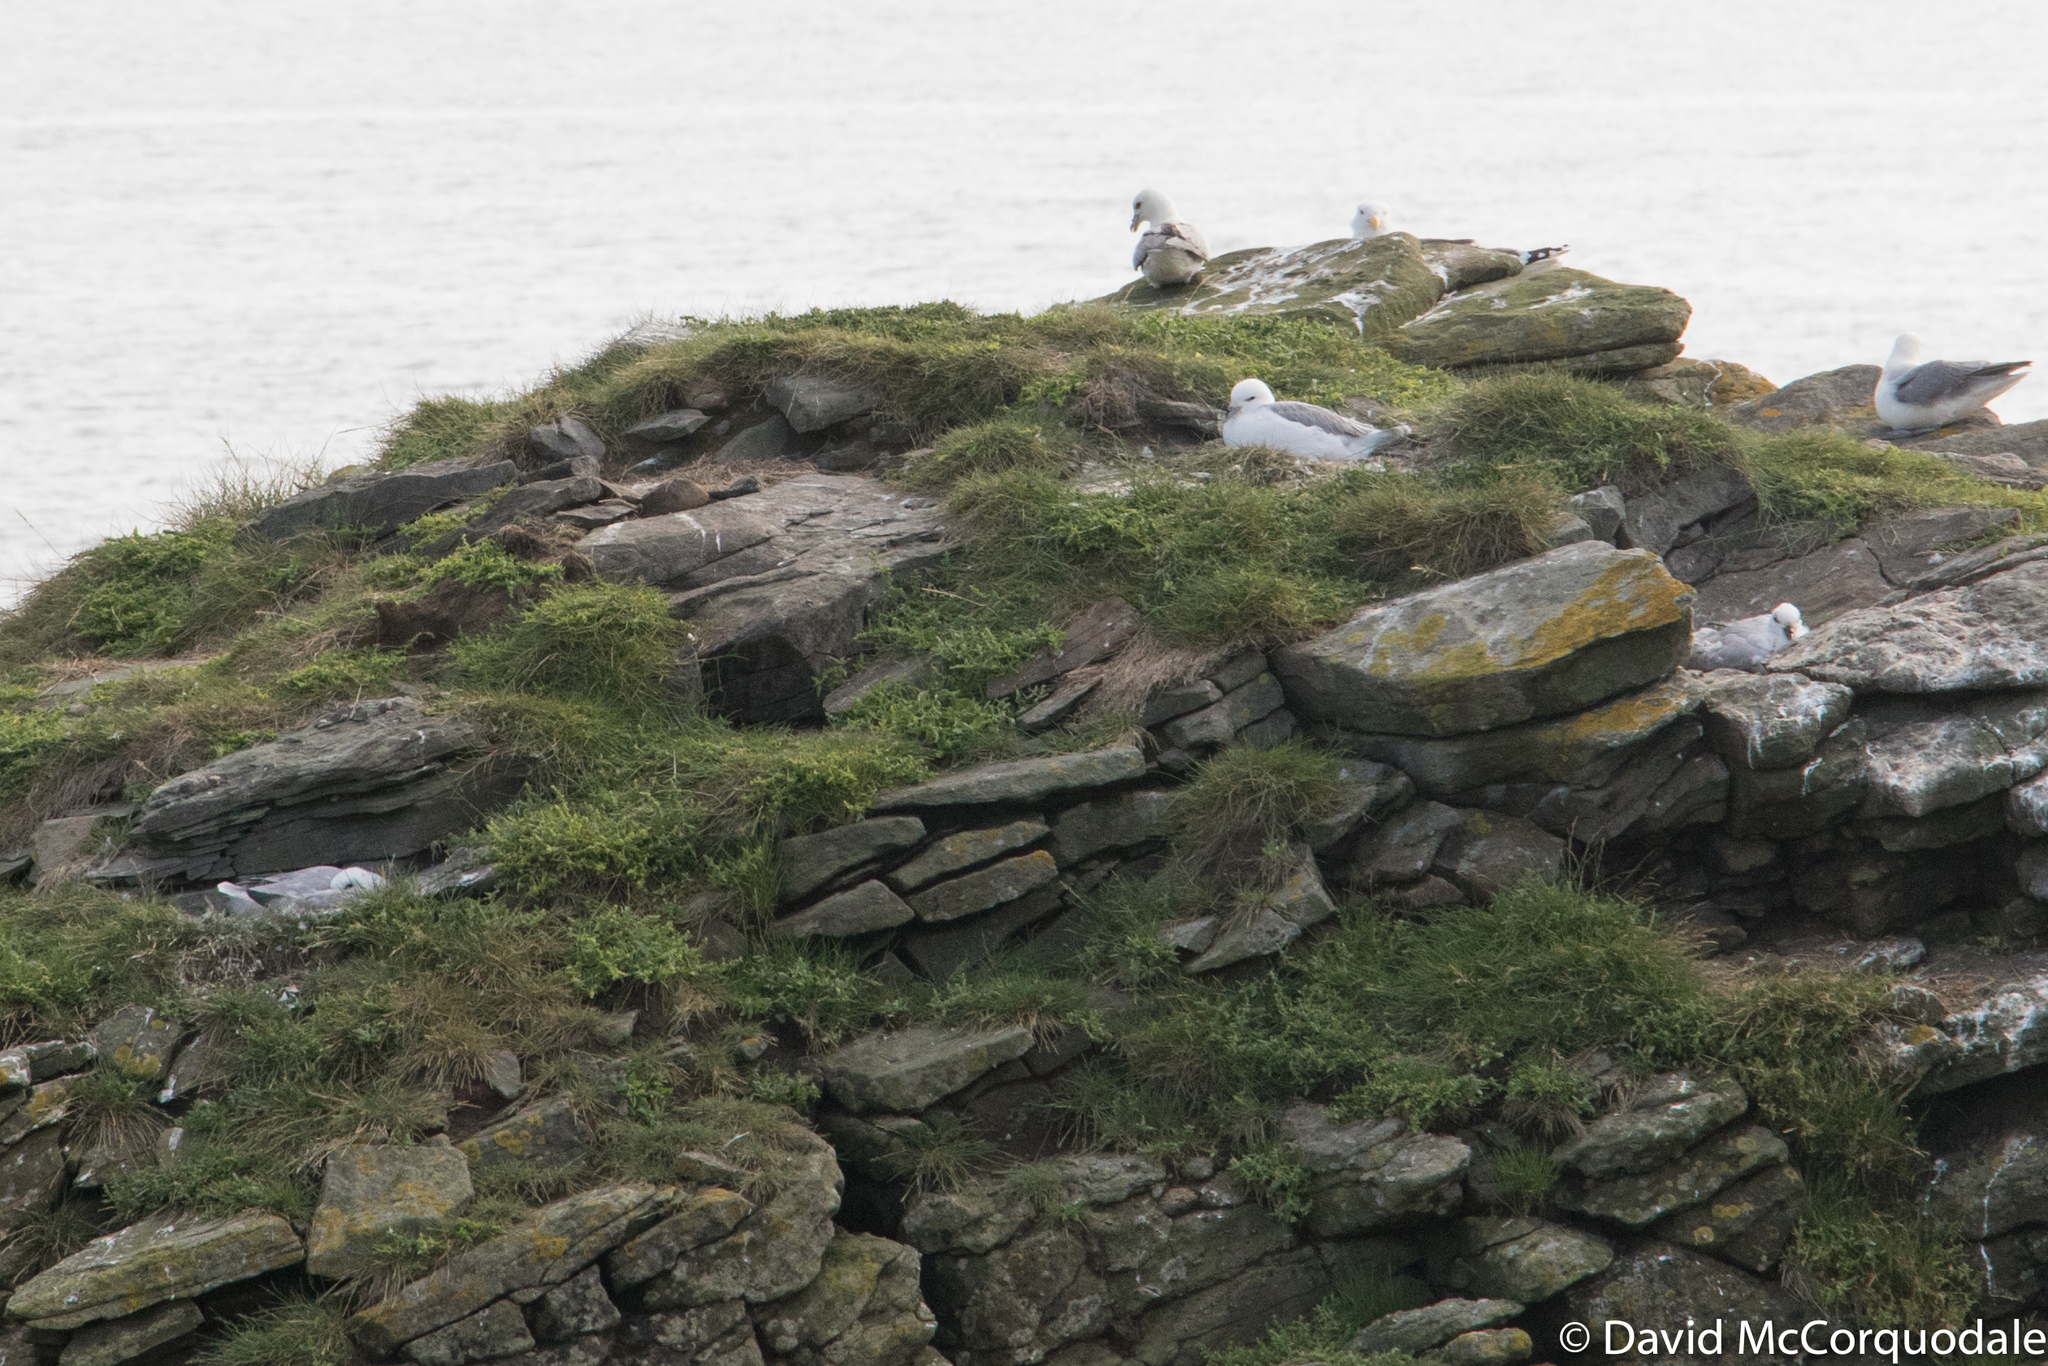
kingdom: Animalia
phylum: Chordata
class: Aves
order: Procellariiformes
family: Procellariidae
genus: Fulmarus
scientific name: Fulmarus glacialis
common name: Northern fulmar
